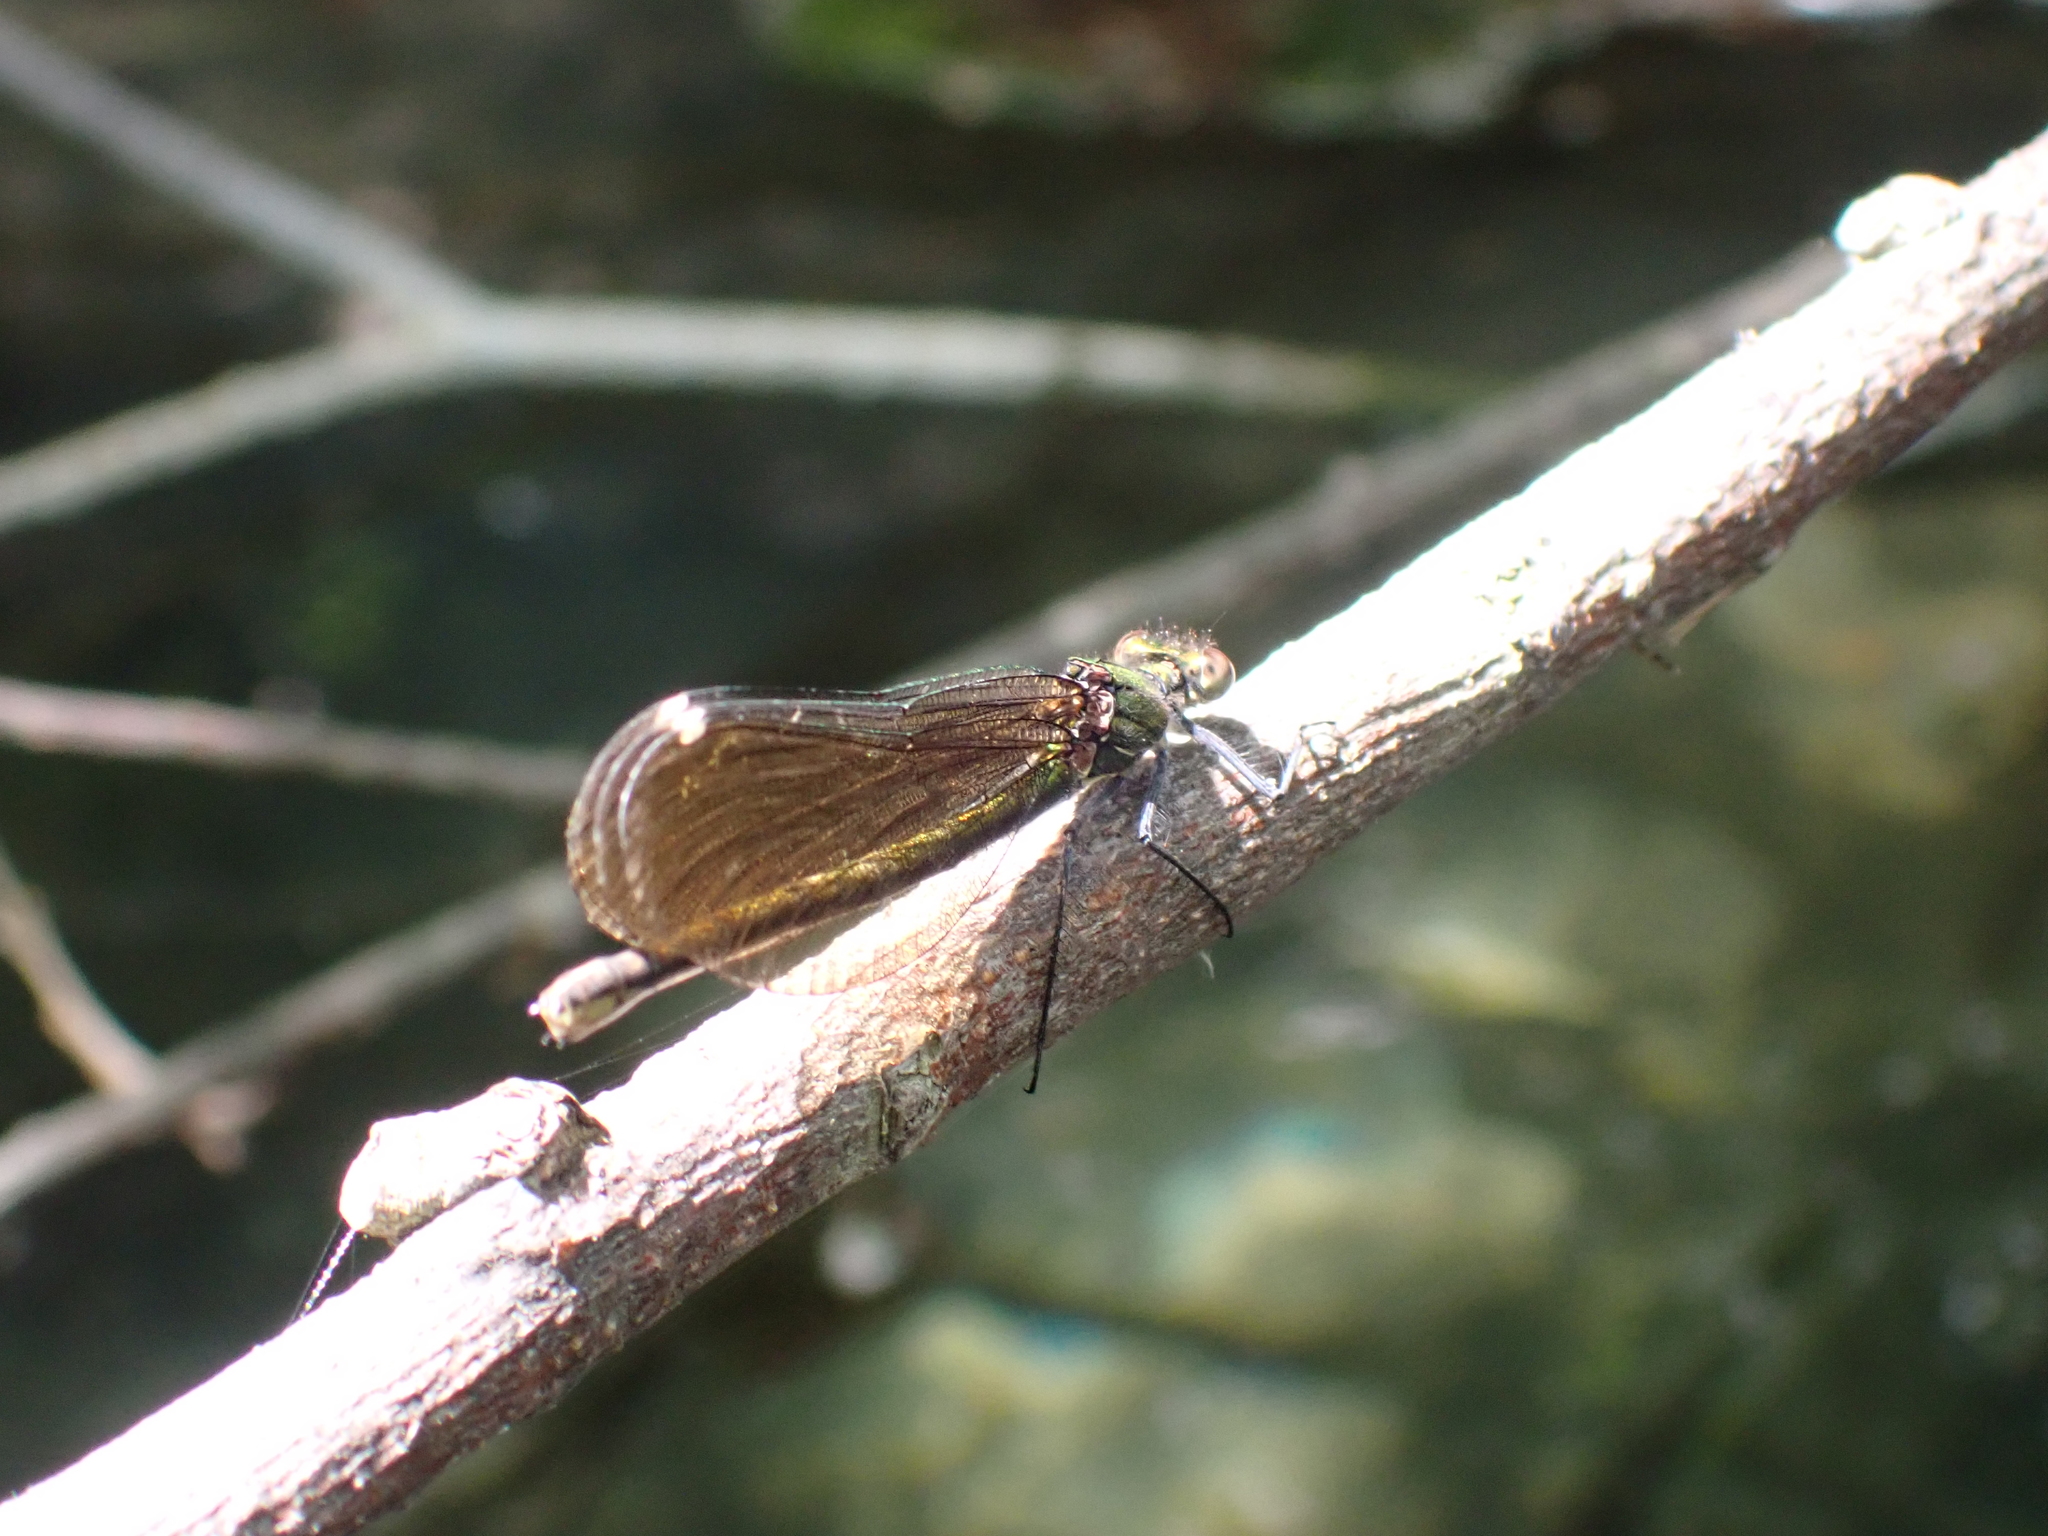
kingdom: Animalia
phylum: Arthropoda
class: Insecta
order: Odonata
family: Calopterygidae
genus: Calopteryx
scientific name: Calopteryx virgo
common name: Beautiful demoiselle
